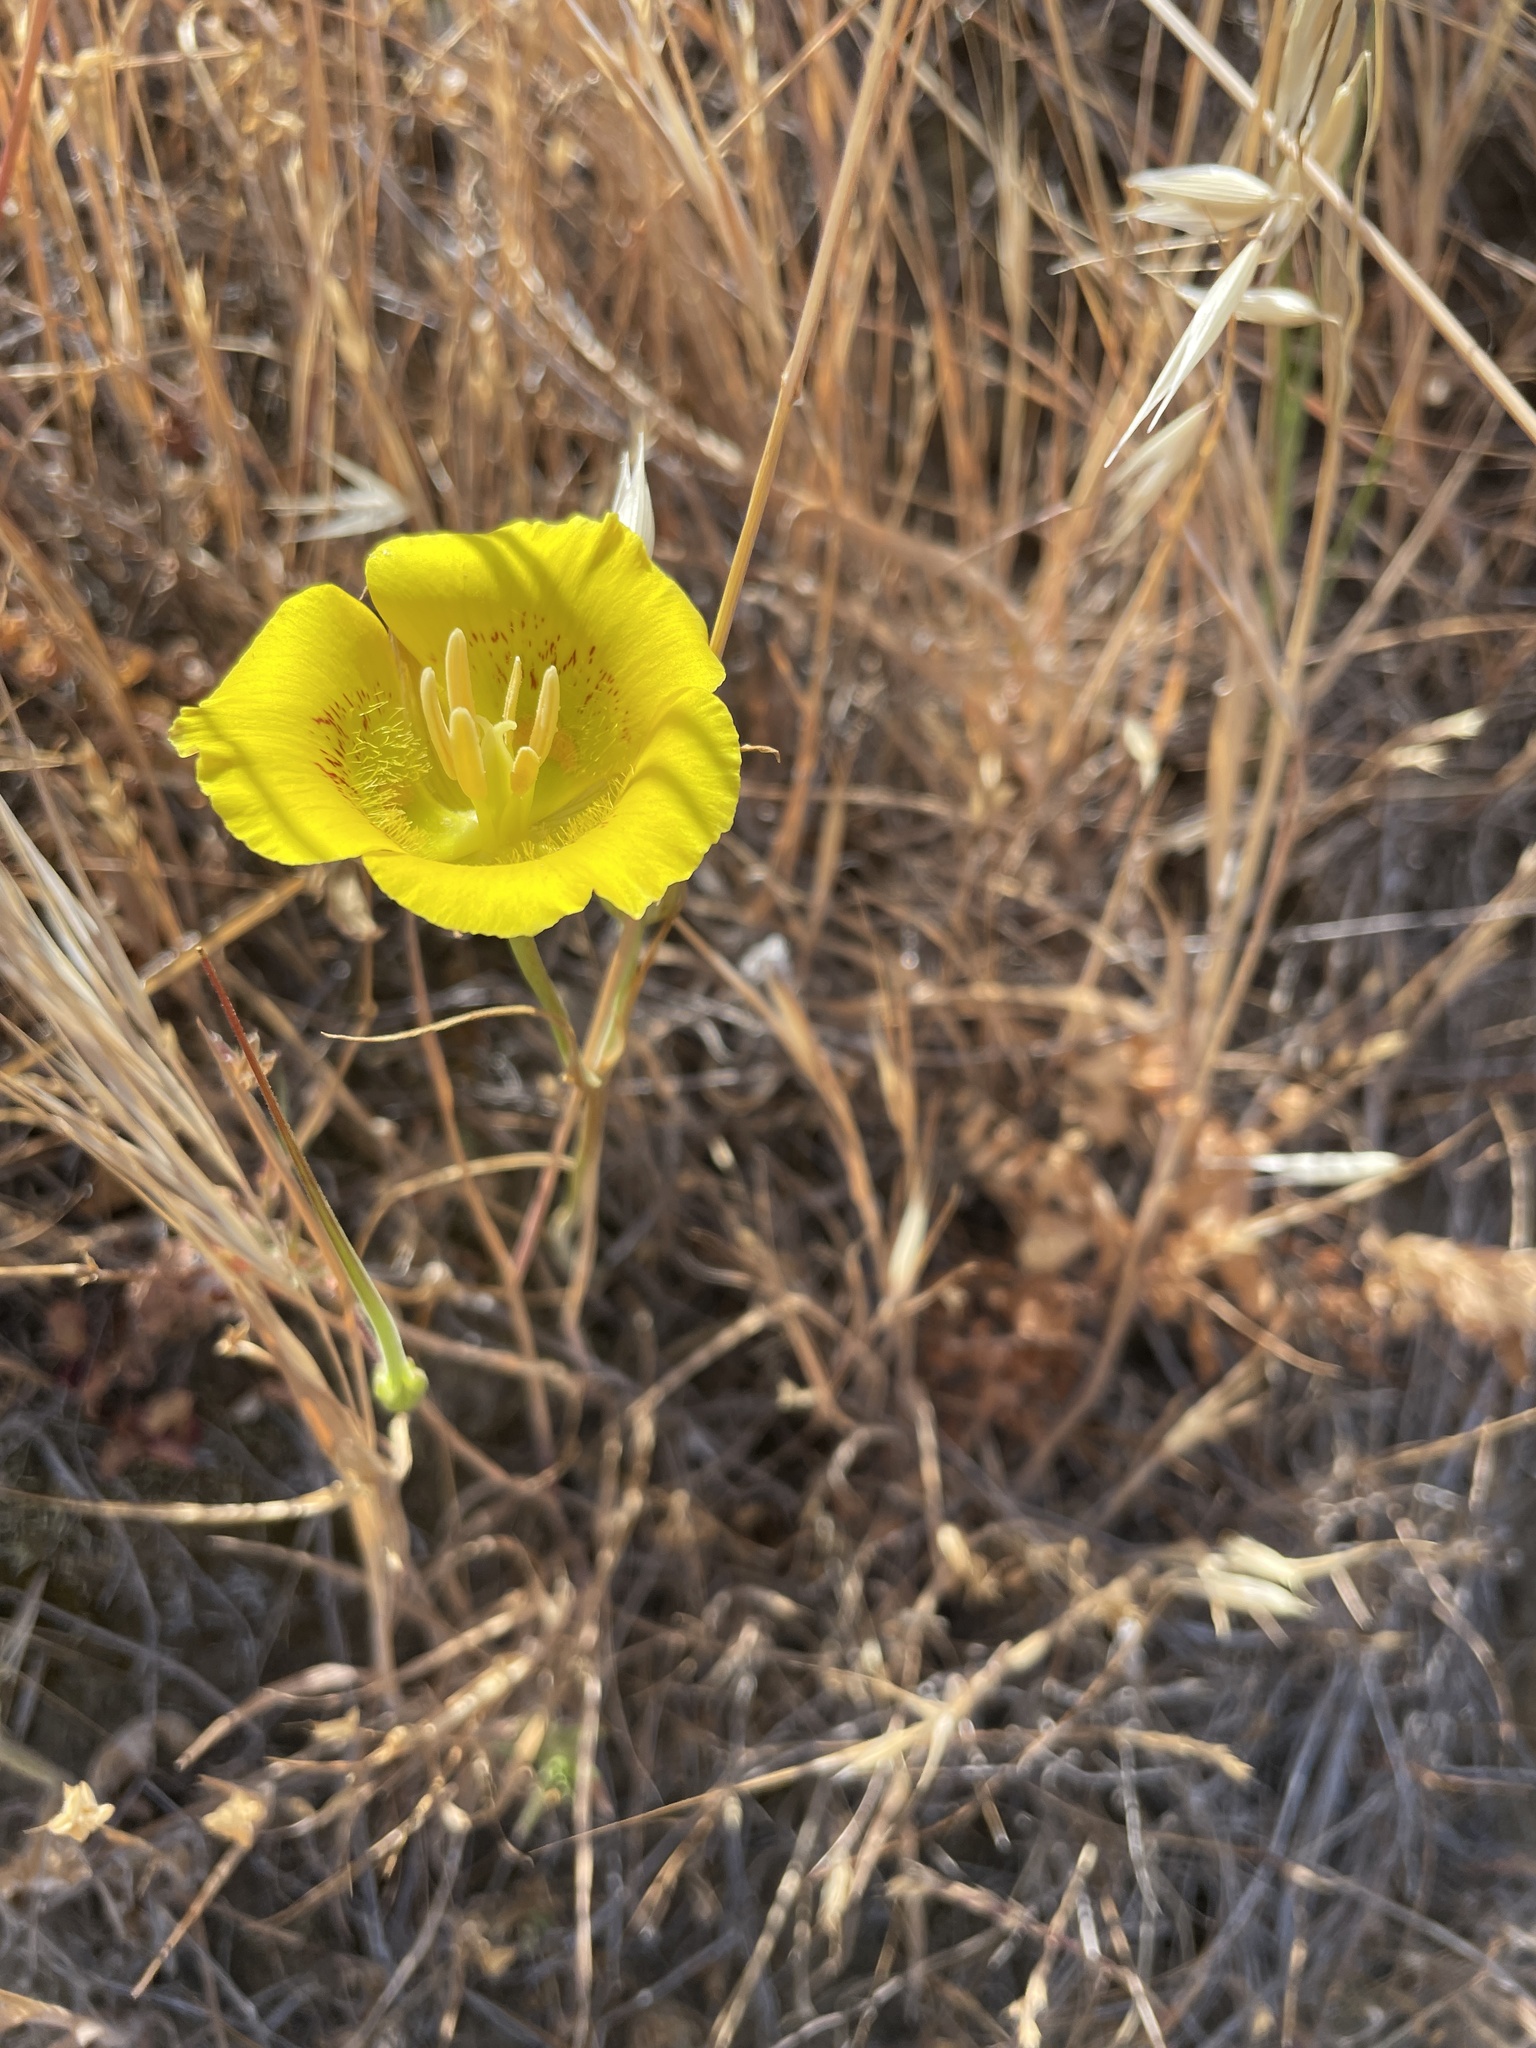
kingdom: Plantae
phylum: Tracheophyta
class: Liliopsida
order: Liliales
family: Liliaceae
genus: Calochortus
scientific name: Calochortus luteus
